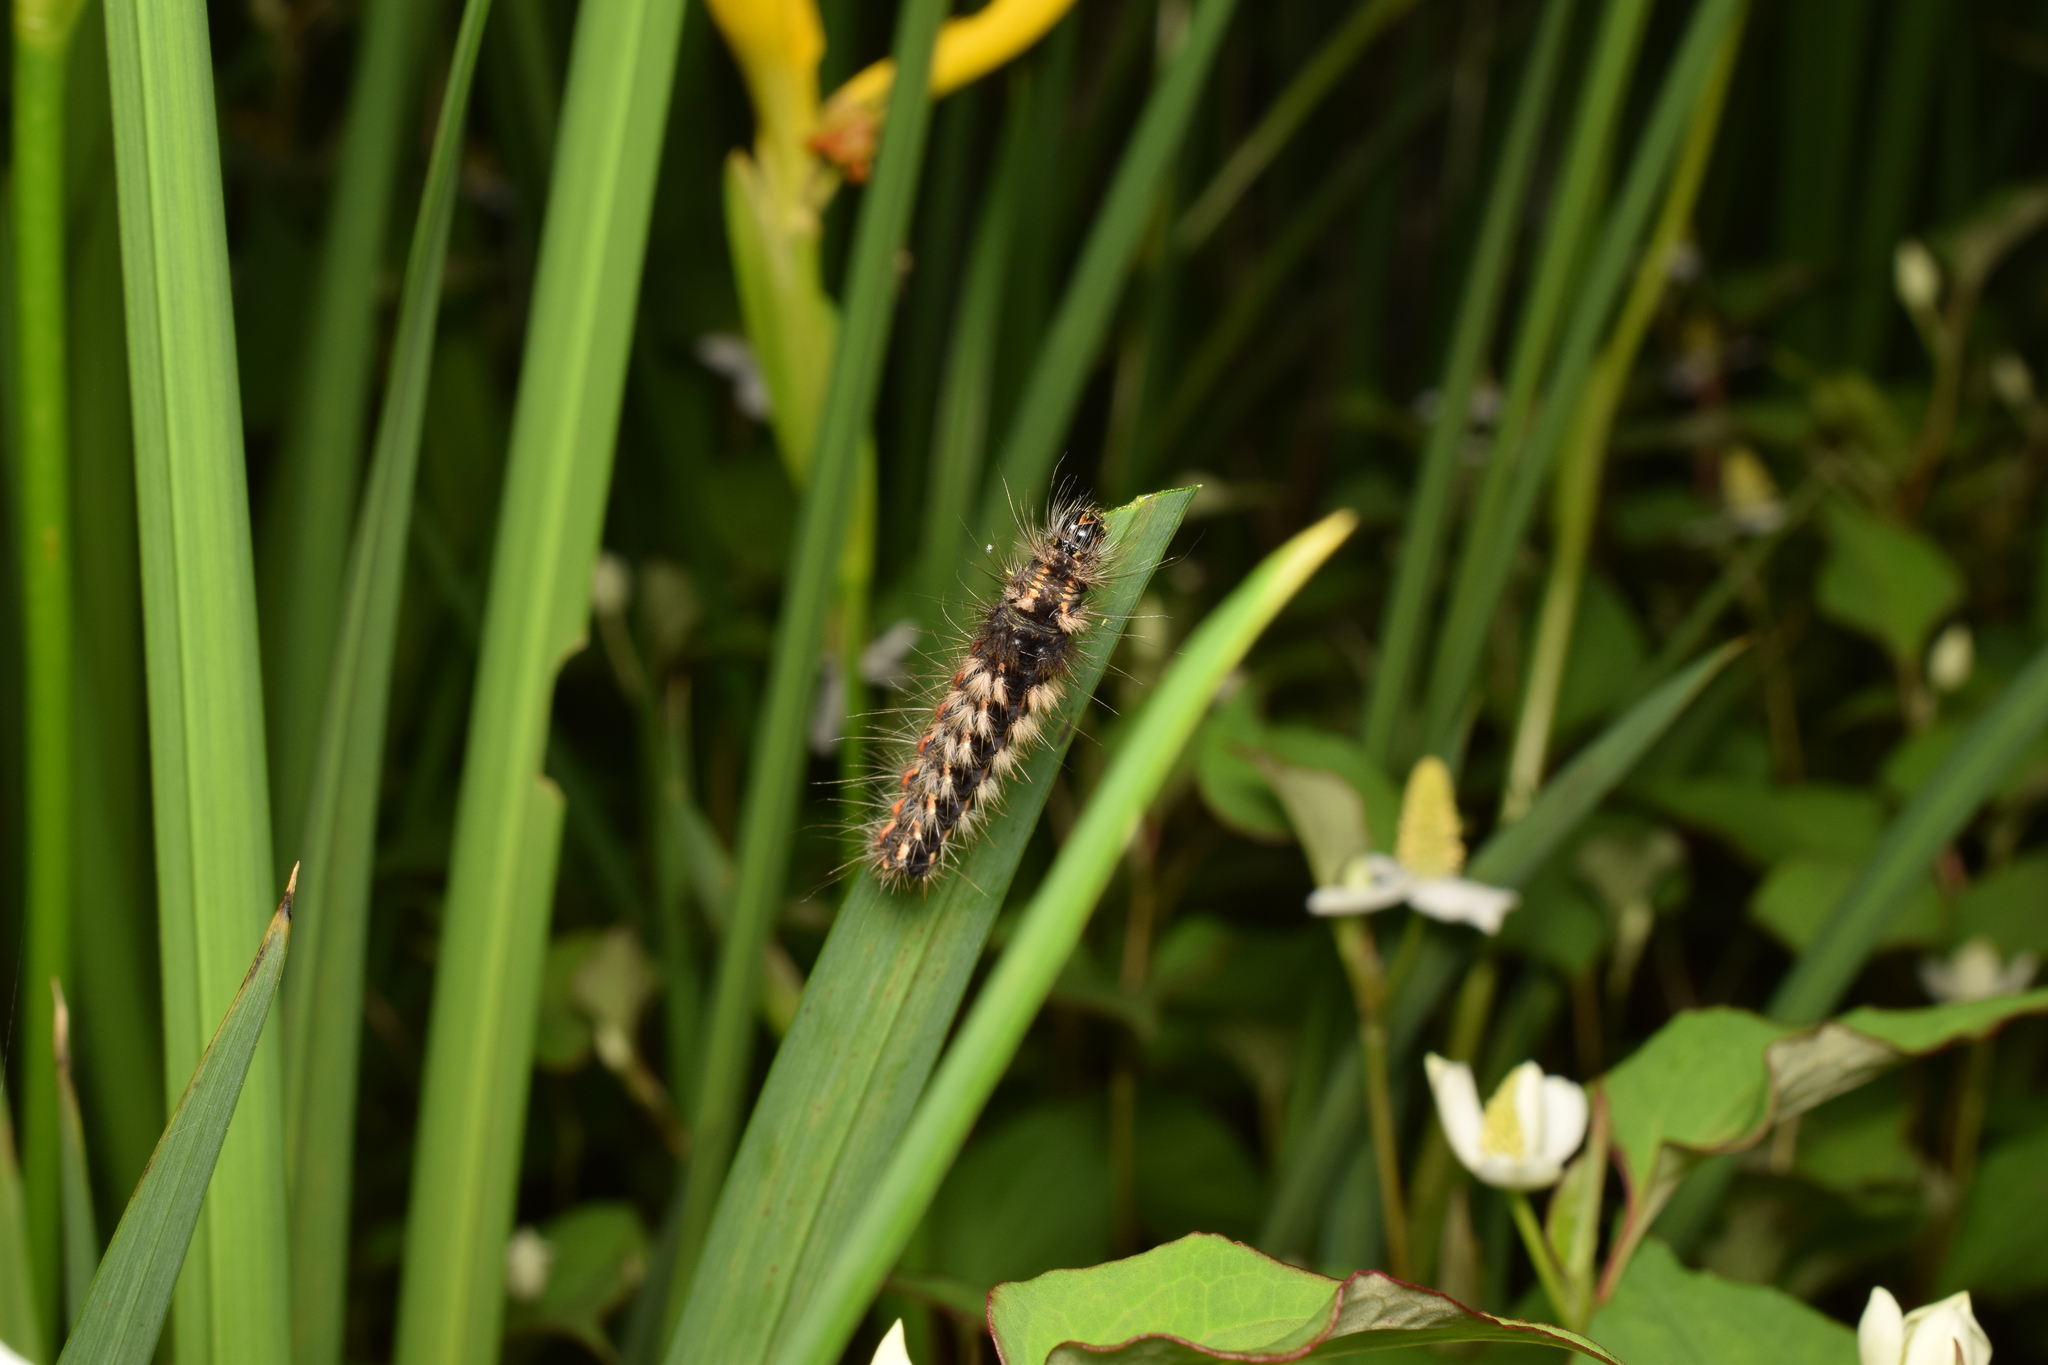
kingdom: Animalia
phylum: Arthropoda
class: Insecta
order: Lepidoptera
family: Noctuidae
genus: Acronicta
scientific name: Acronicta rumicis
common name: Knot grass
